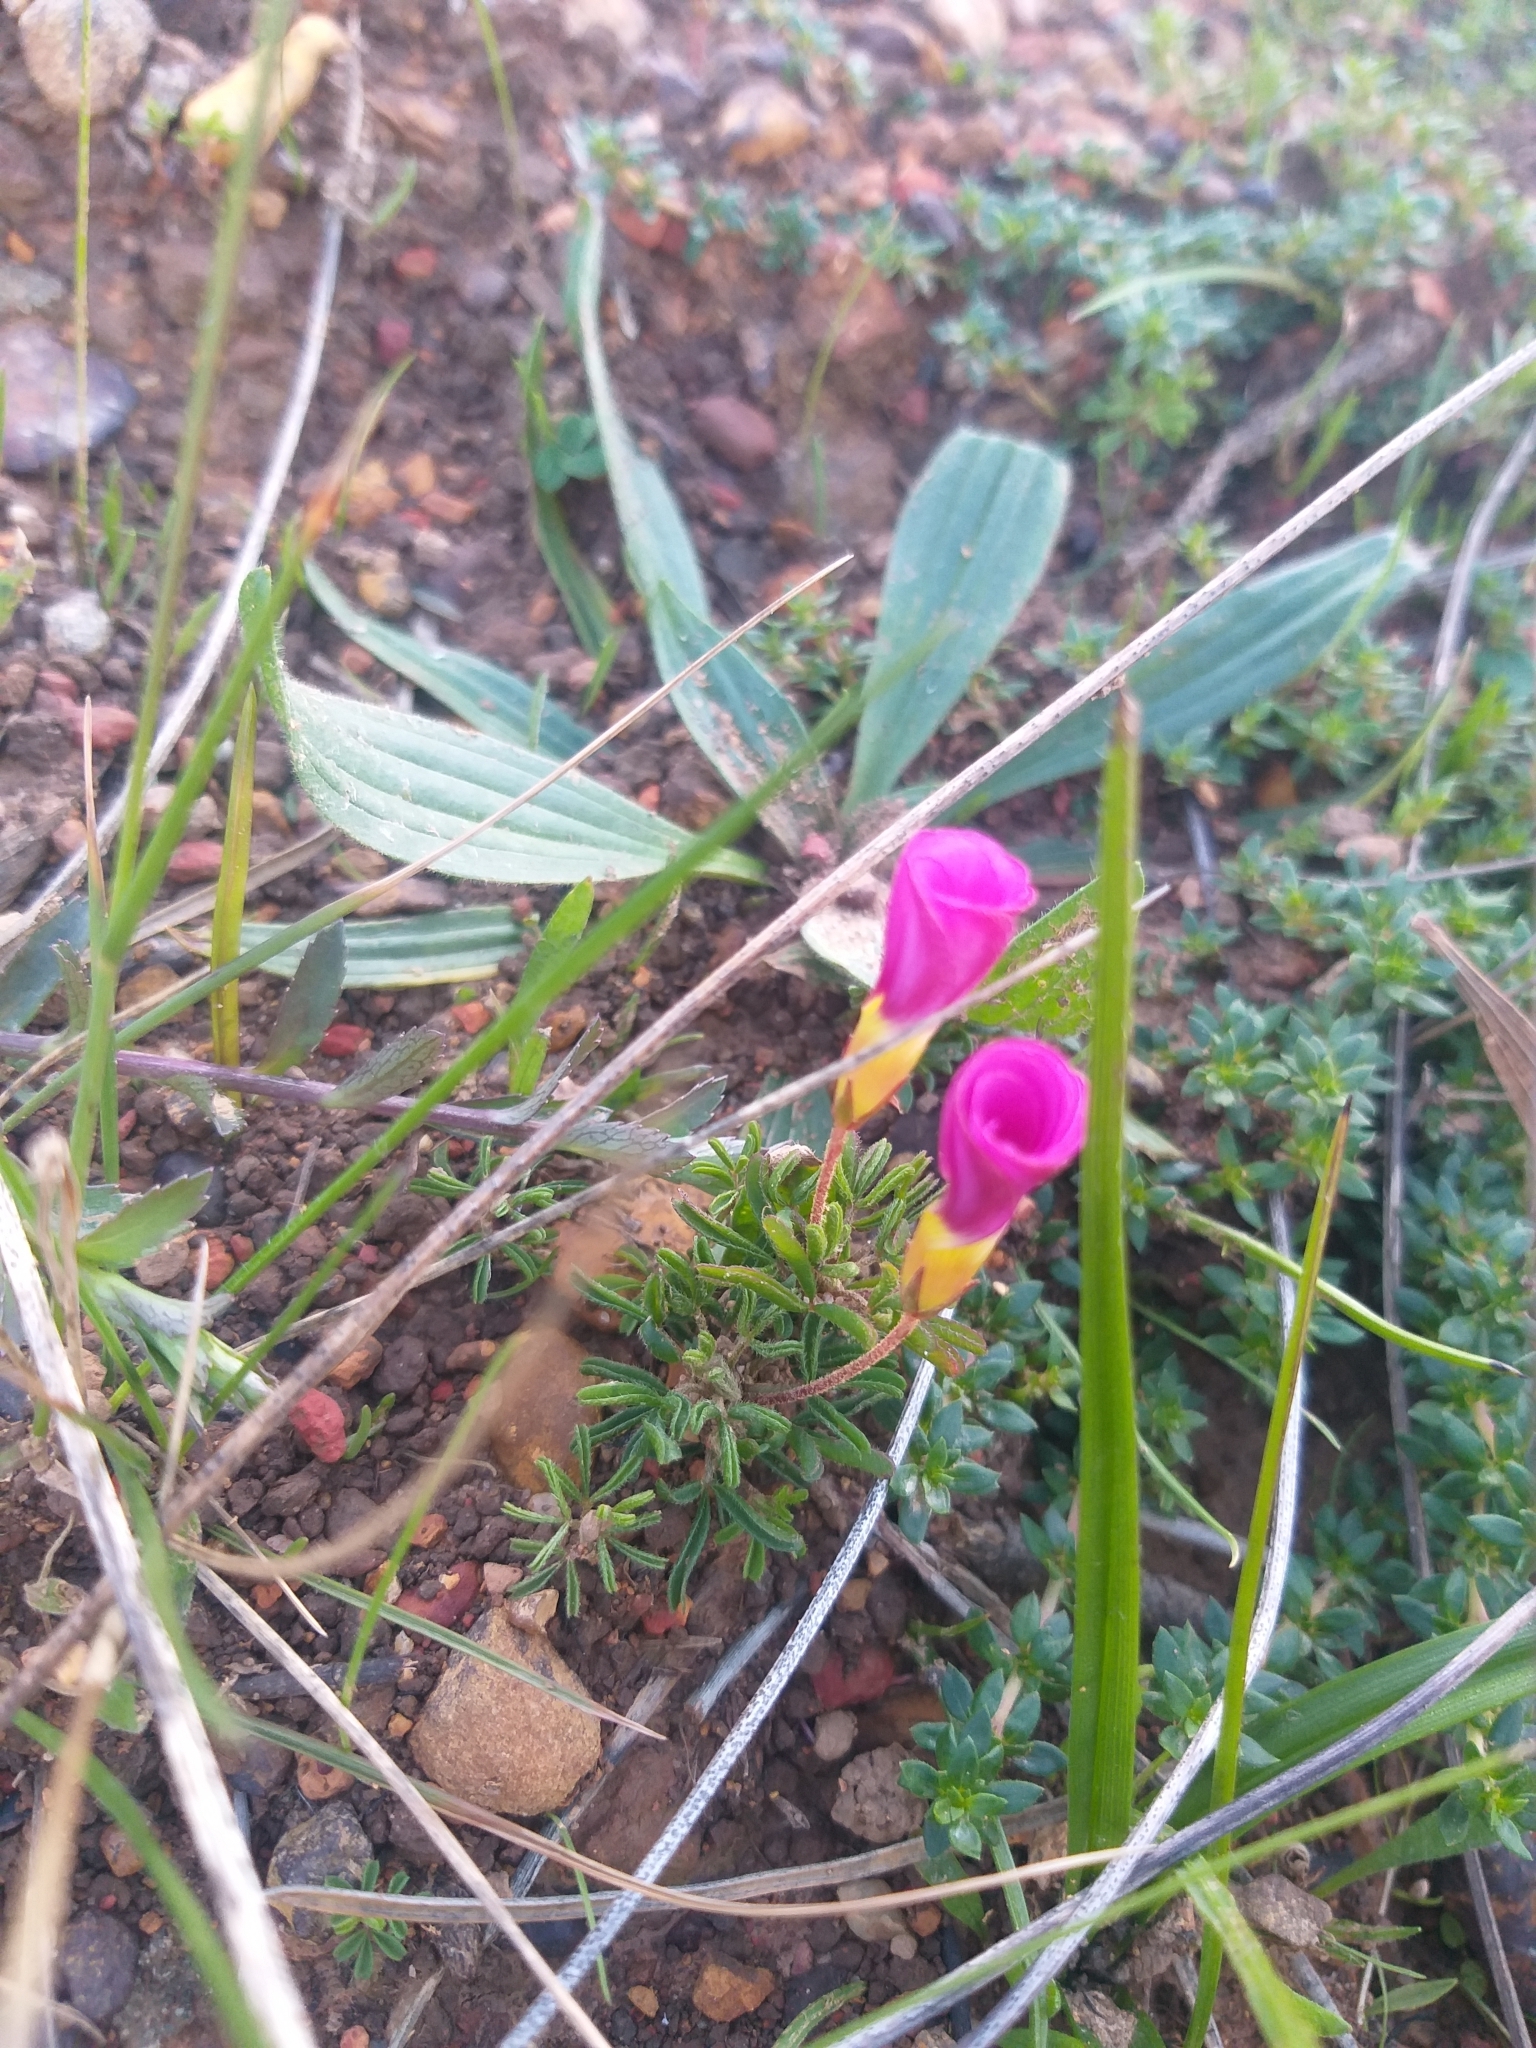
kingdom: Plantae
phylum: Tracheophyta
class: Magnoliopsida
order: Oxalidales
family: Oxalidaceae
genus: Oxalis
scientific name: Oxalis glabra
